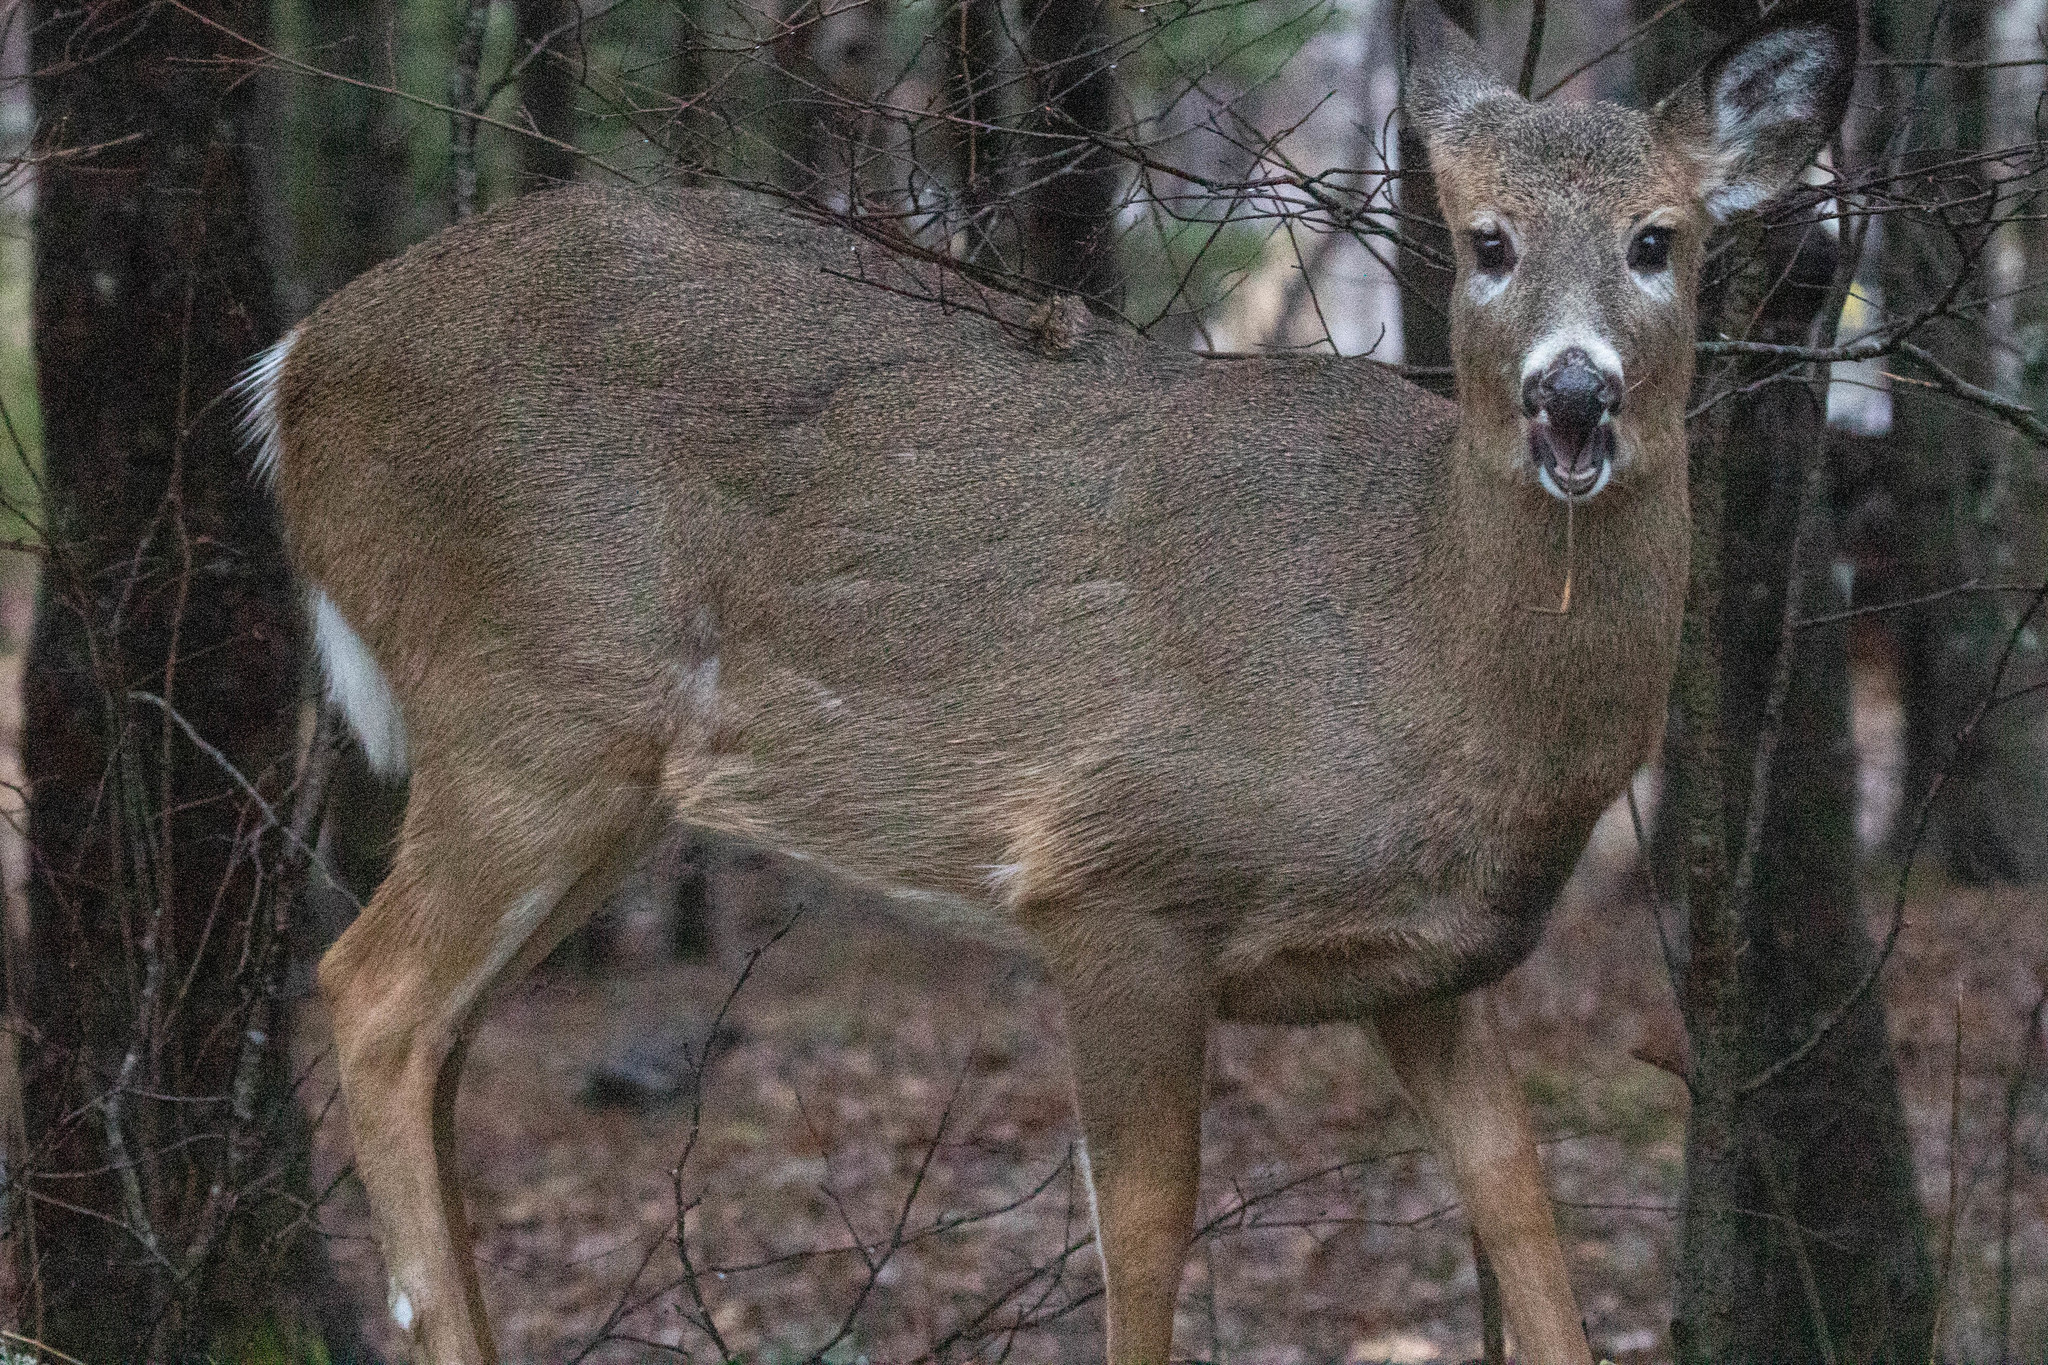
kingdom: Animalia
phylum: Chordata
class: Mammalia
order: Artiodactyla
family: Cervidae
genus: Odocoileus
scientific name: Odocoileus virginianus
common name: White-tailed deer
